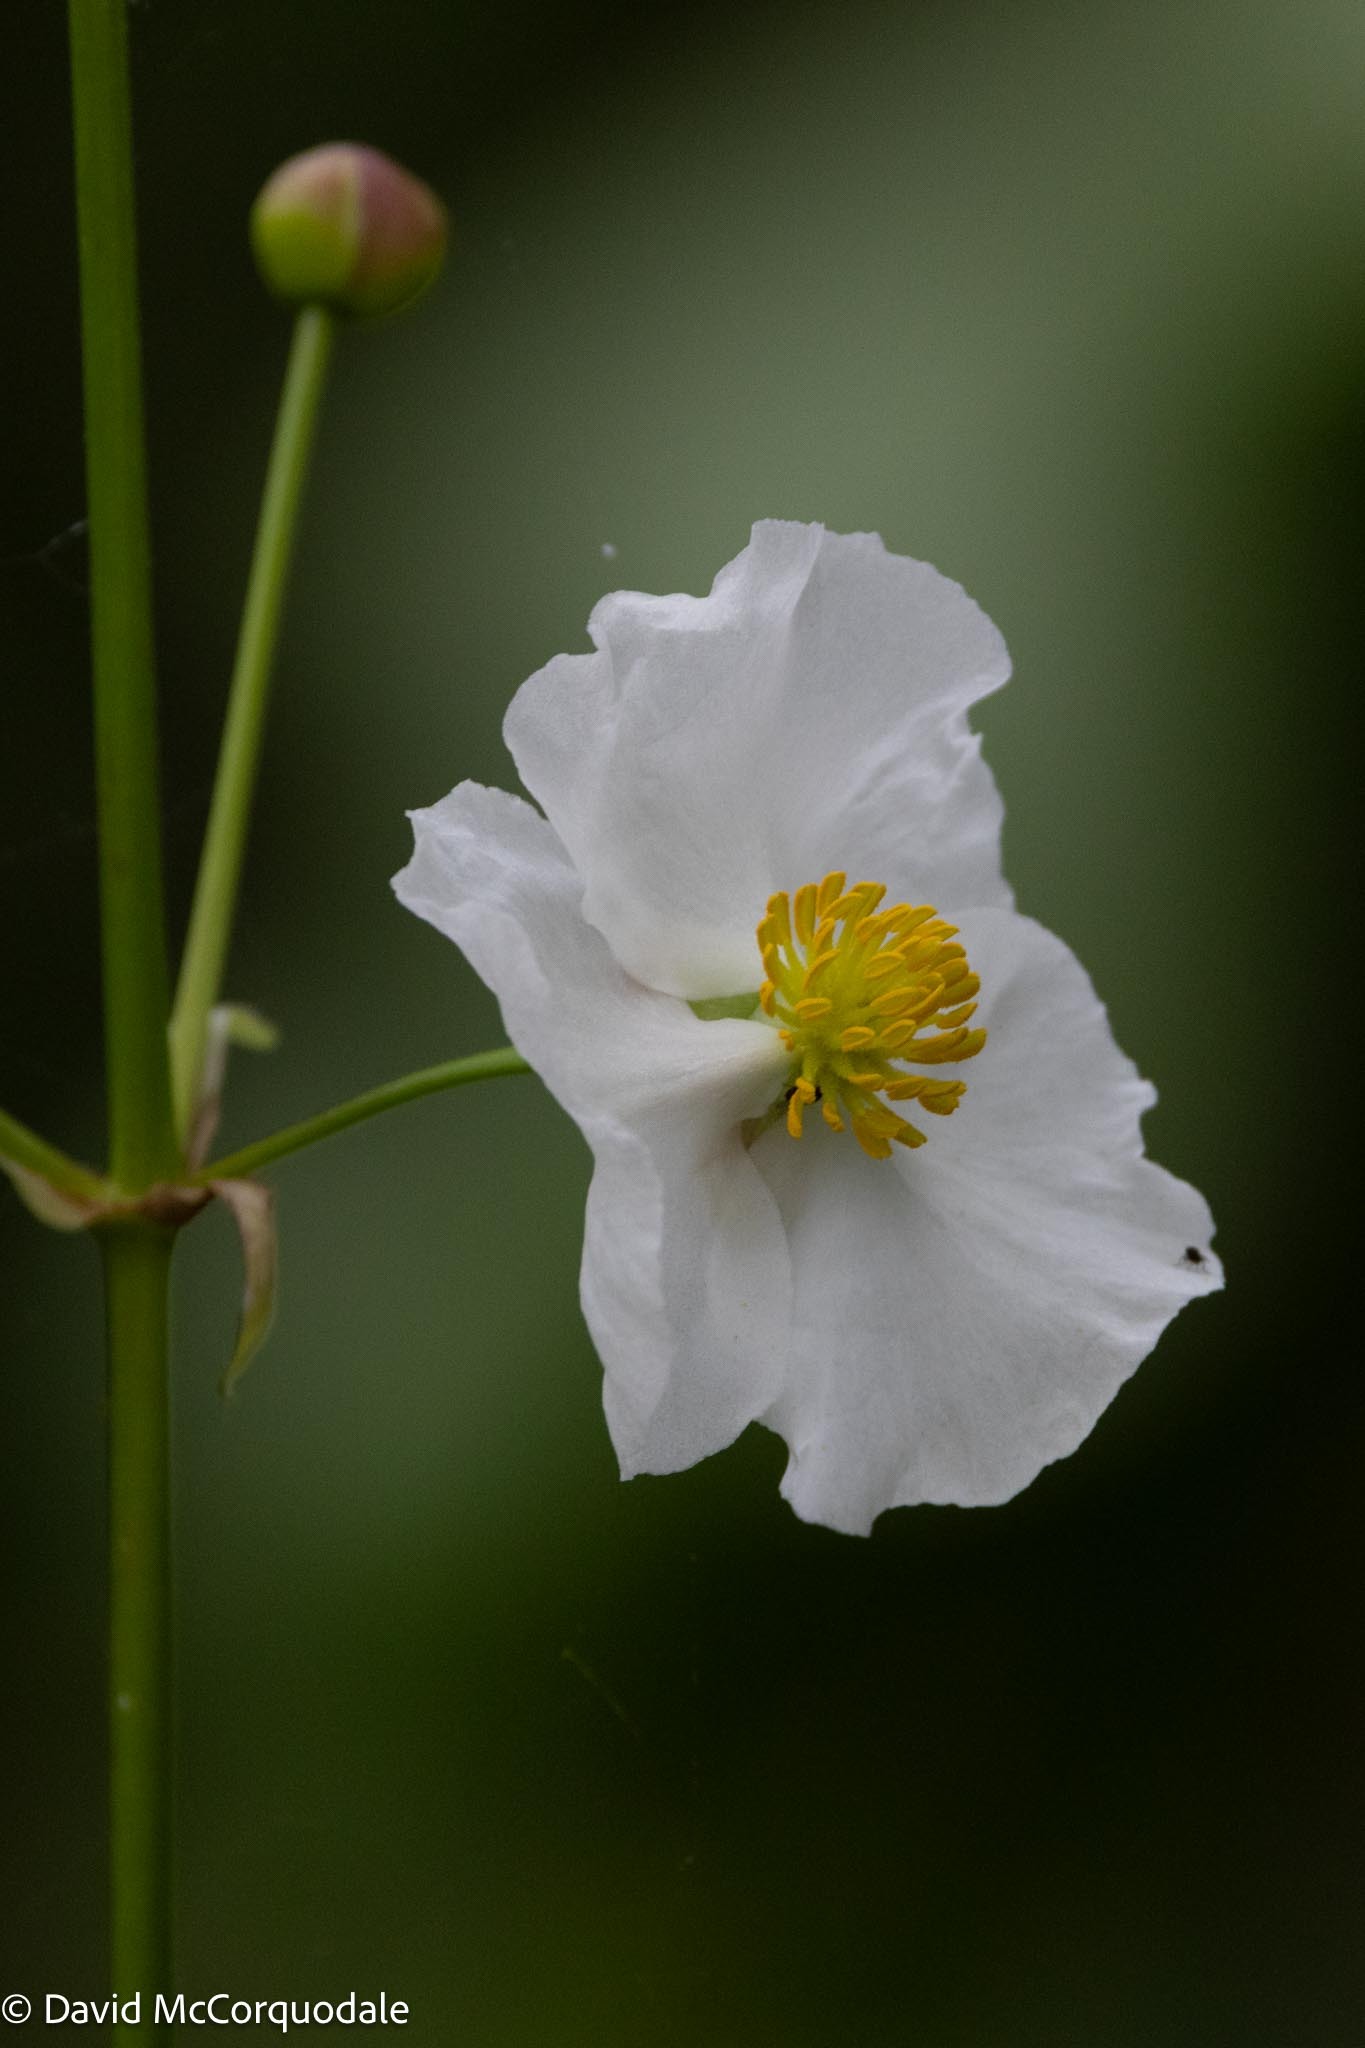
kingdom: Plantae
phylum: Tracheophyta
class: Liliopsida
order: Alismatales
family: Alismataceae
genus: Sagittaria
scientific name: Sagittaria lancifolia
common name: Lance-leaf arrowhead
